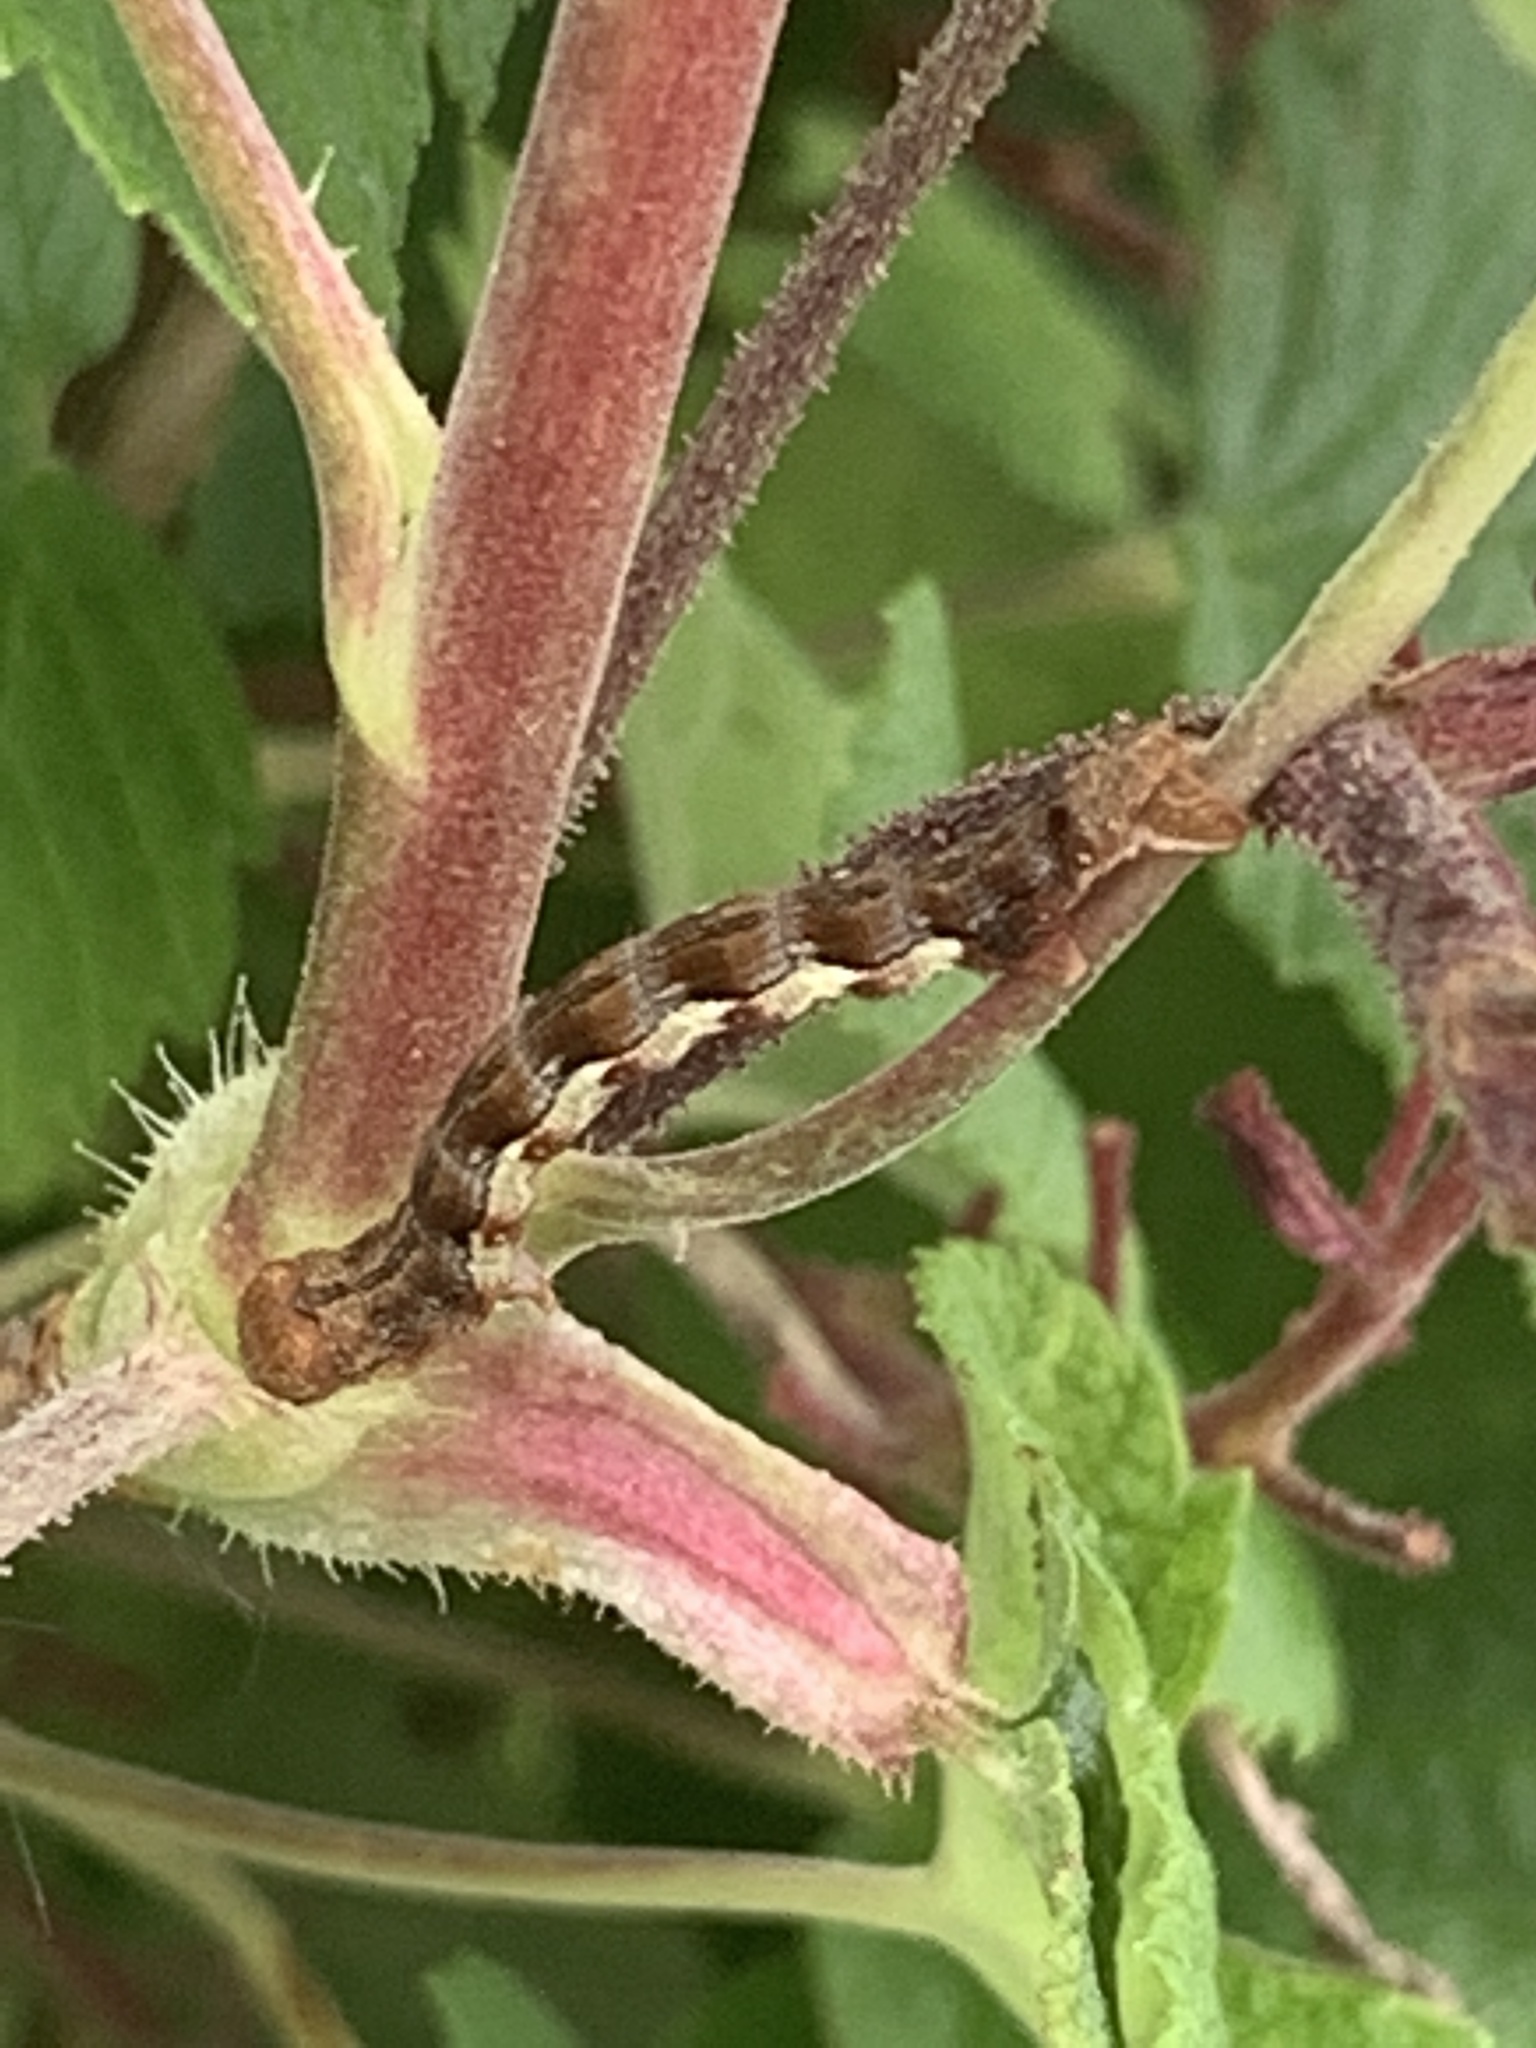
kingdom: Animalia
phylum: Arthropoda
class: Insecta
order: Lepidoptera
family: Geometridae
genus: Erannis
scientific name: Erannis defoliaria
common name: Mottled umber
